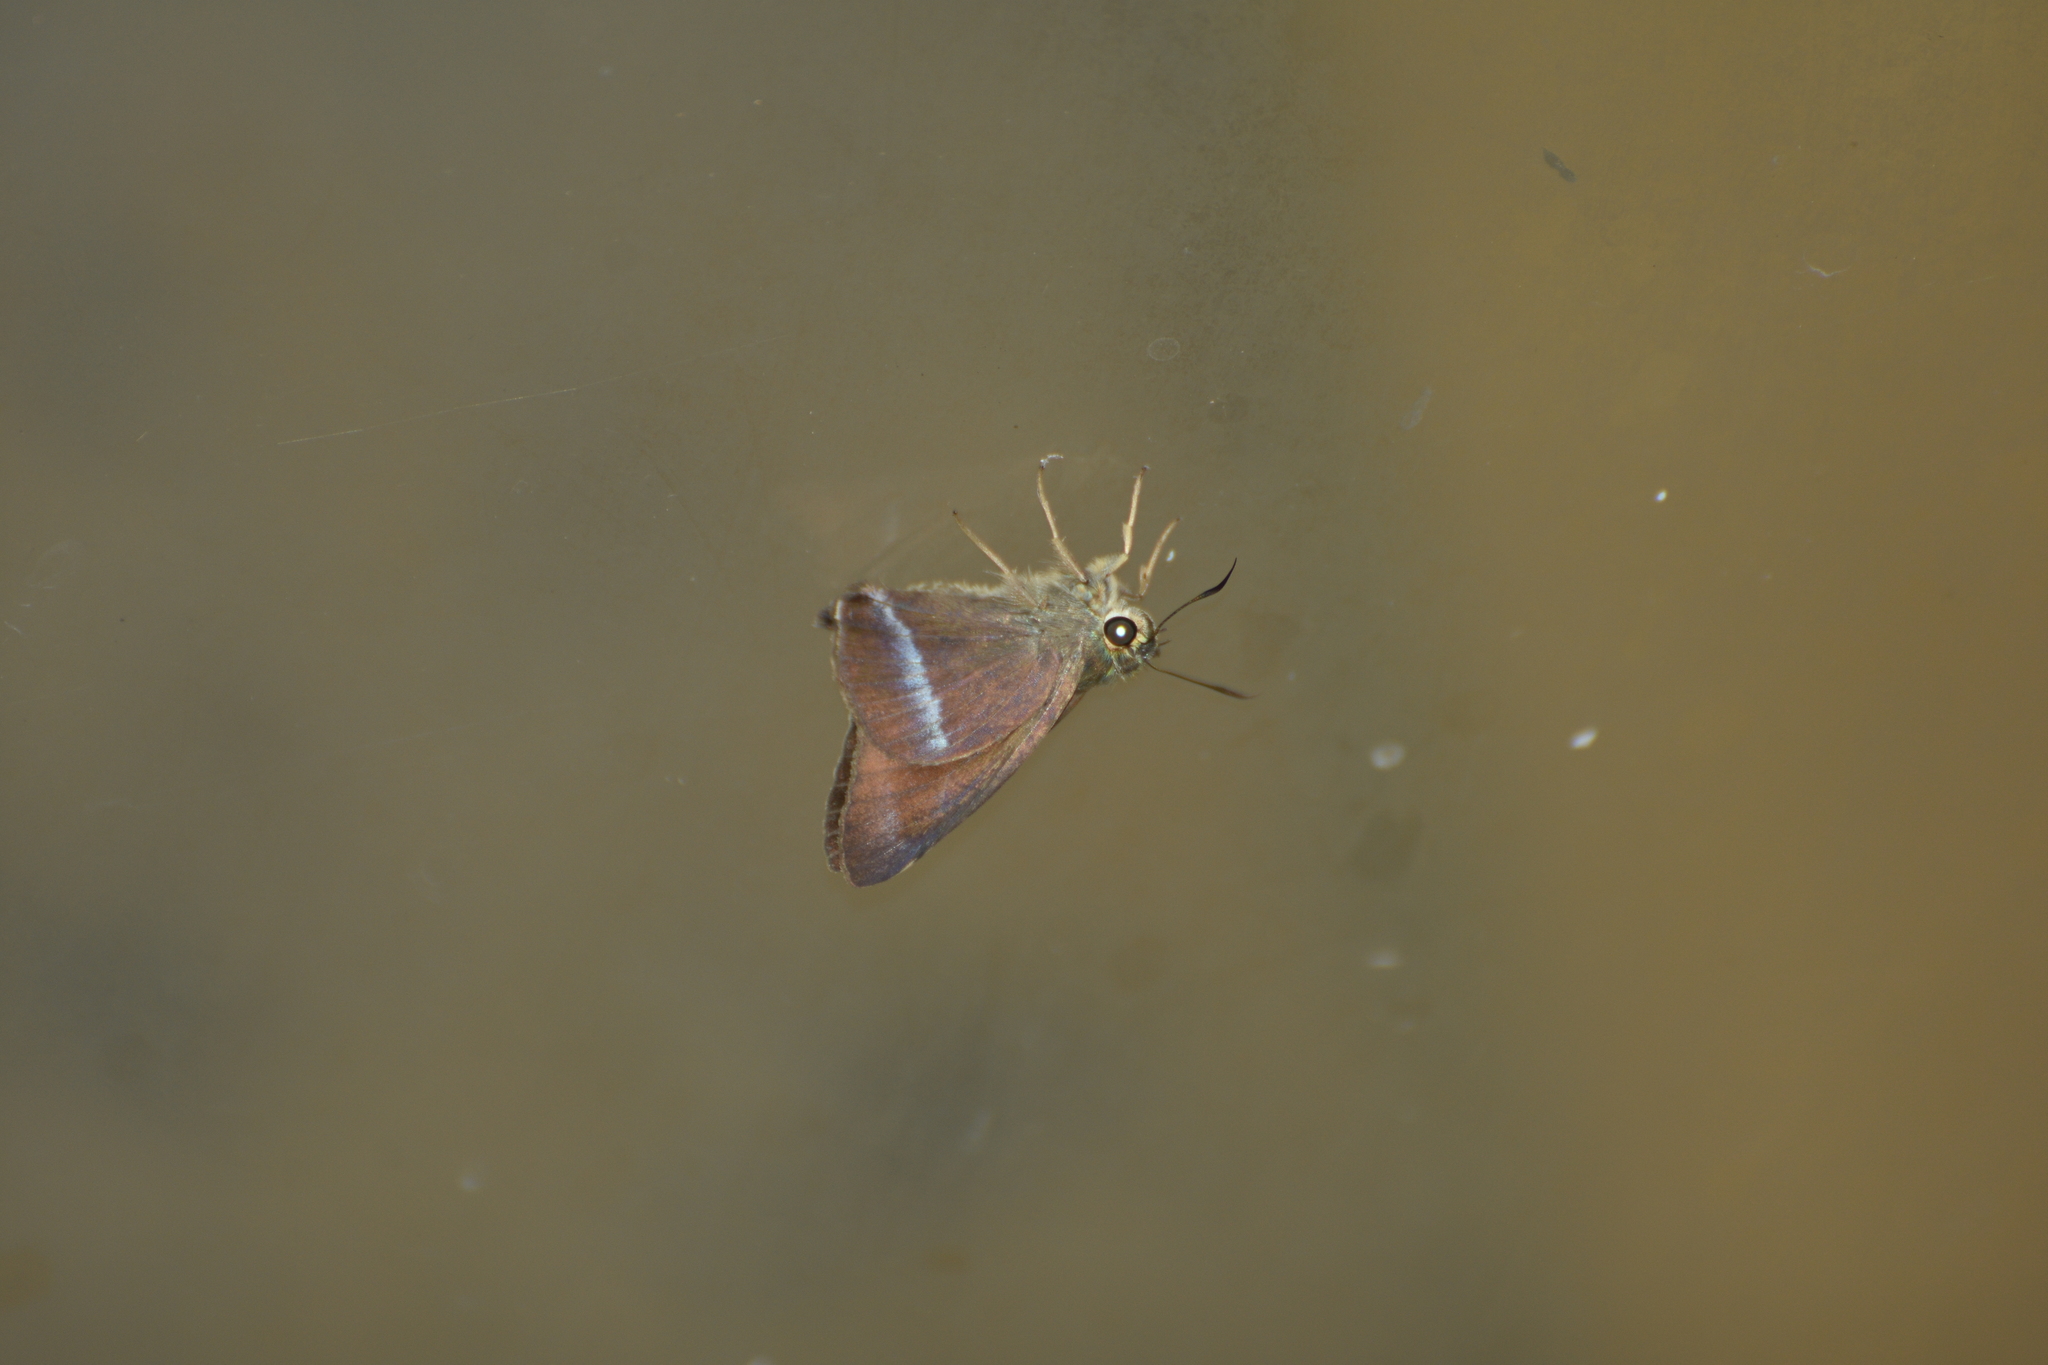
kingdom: Animalia
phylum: Arthropoda
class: Insecta
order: Lepidoptera
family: Hesperiidae
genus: Hasora
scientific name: Hasora chromus
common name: Common banded awl
